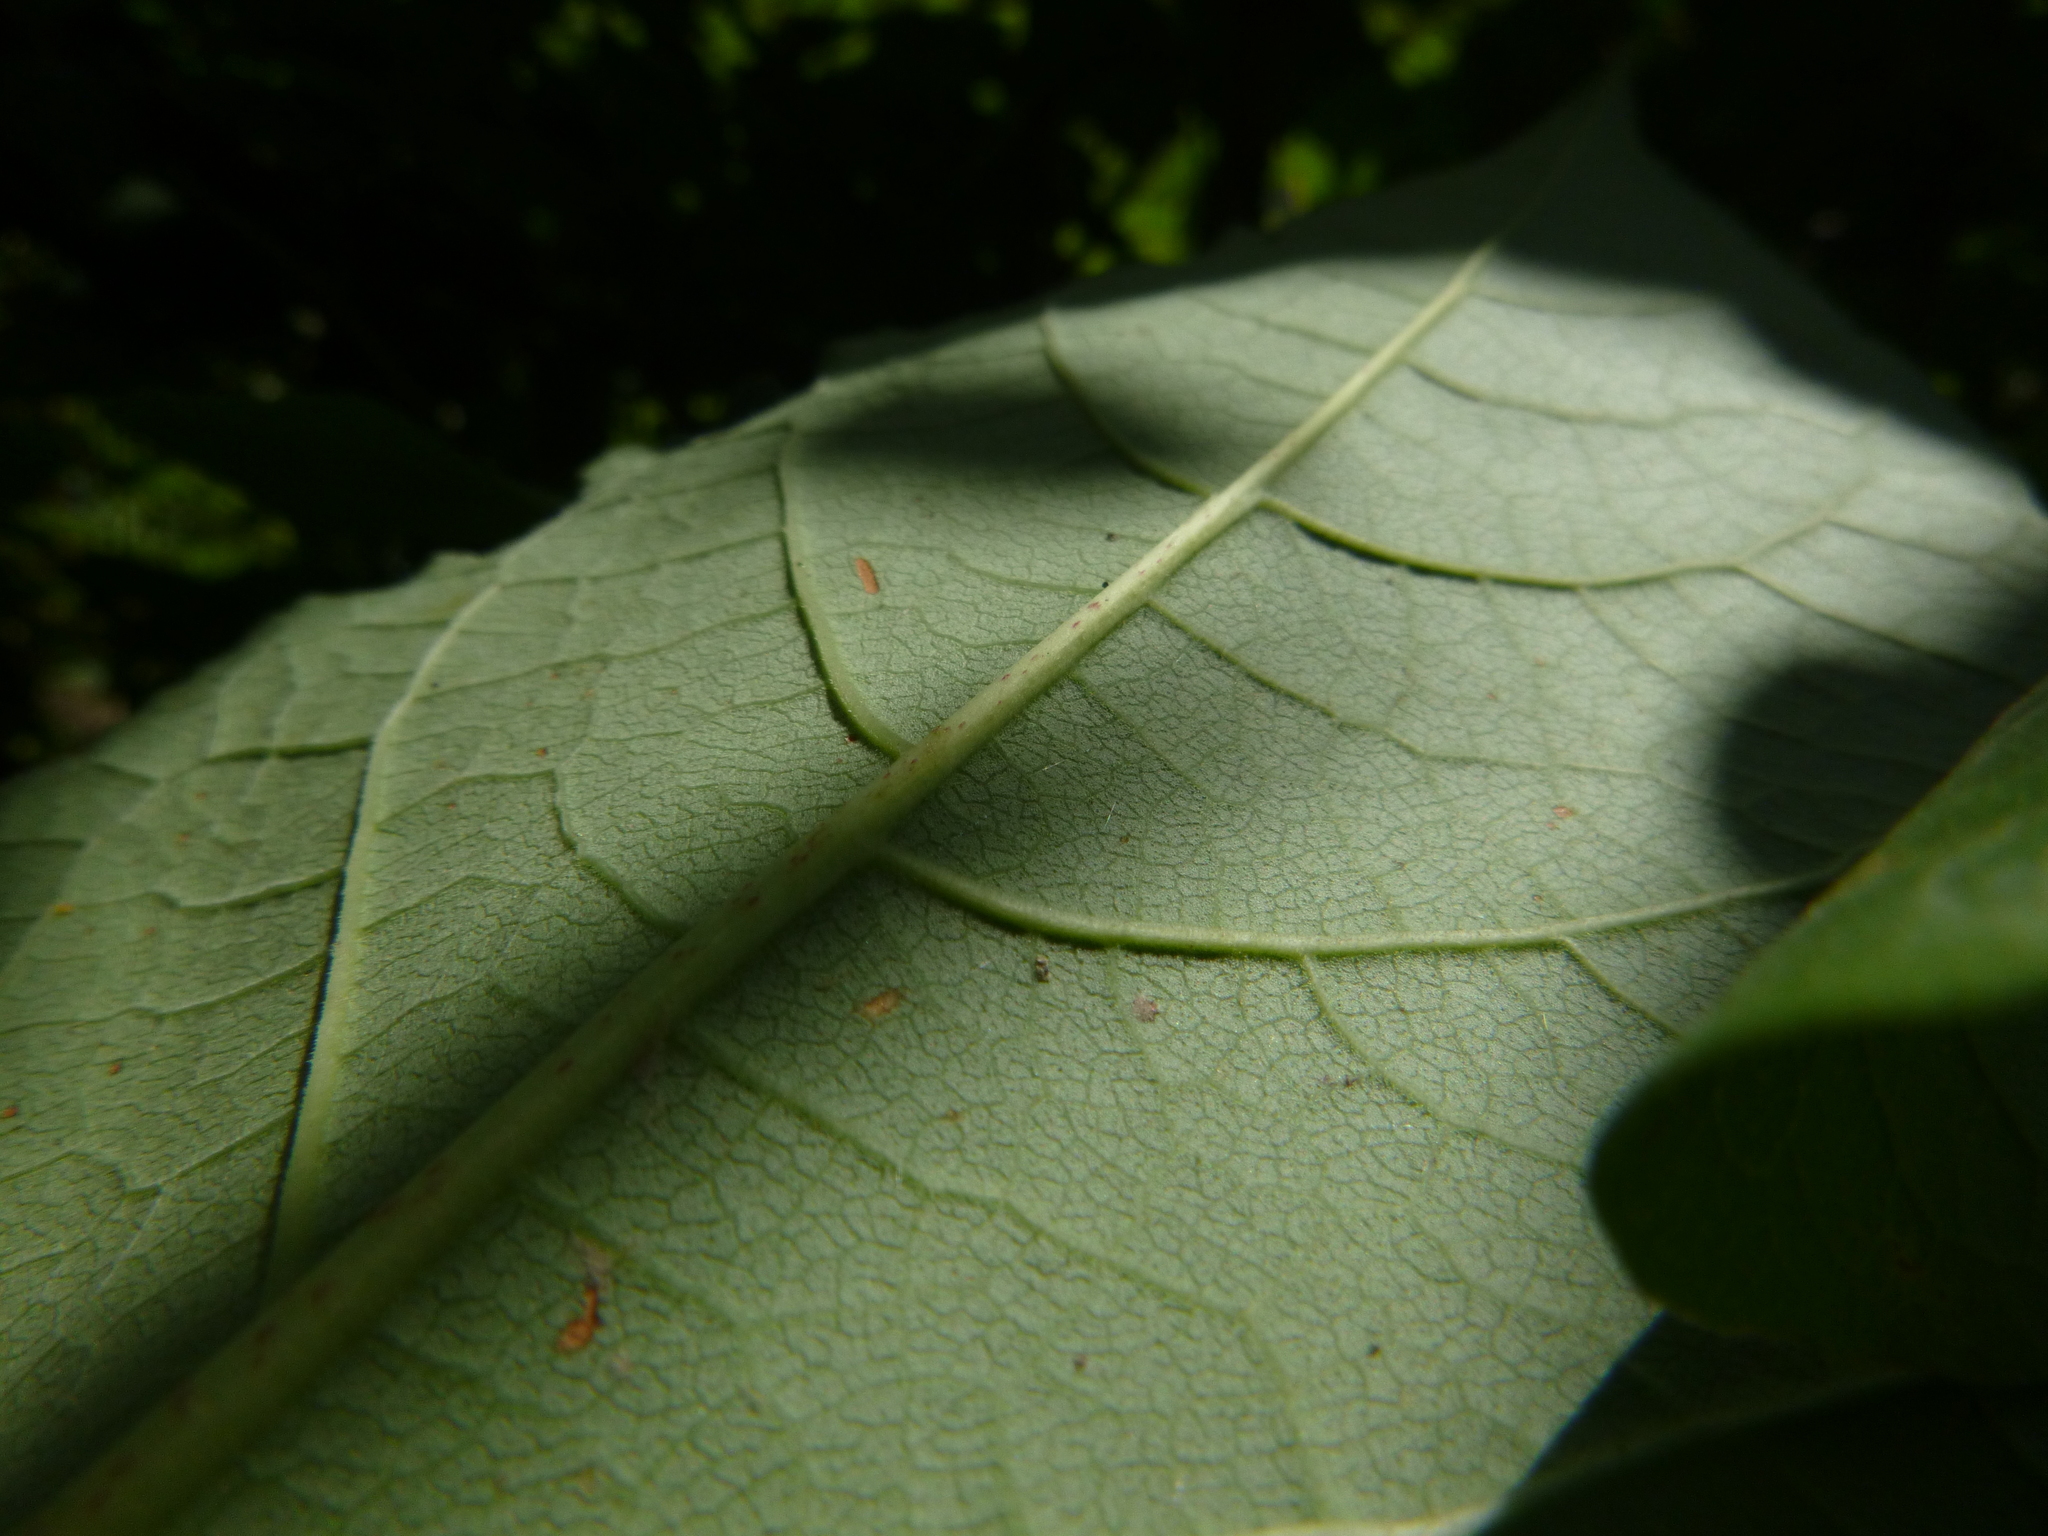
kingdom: Plantae
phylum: Tracheophyta
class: Magnoliopsida
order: Caryophyllales
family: Polygonaceae
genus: Reynoutria
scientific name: Reynoutria bohemica
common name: Bohemian knotweed
